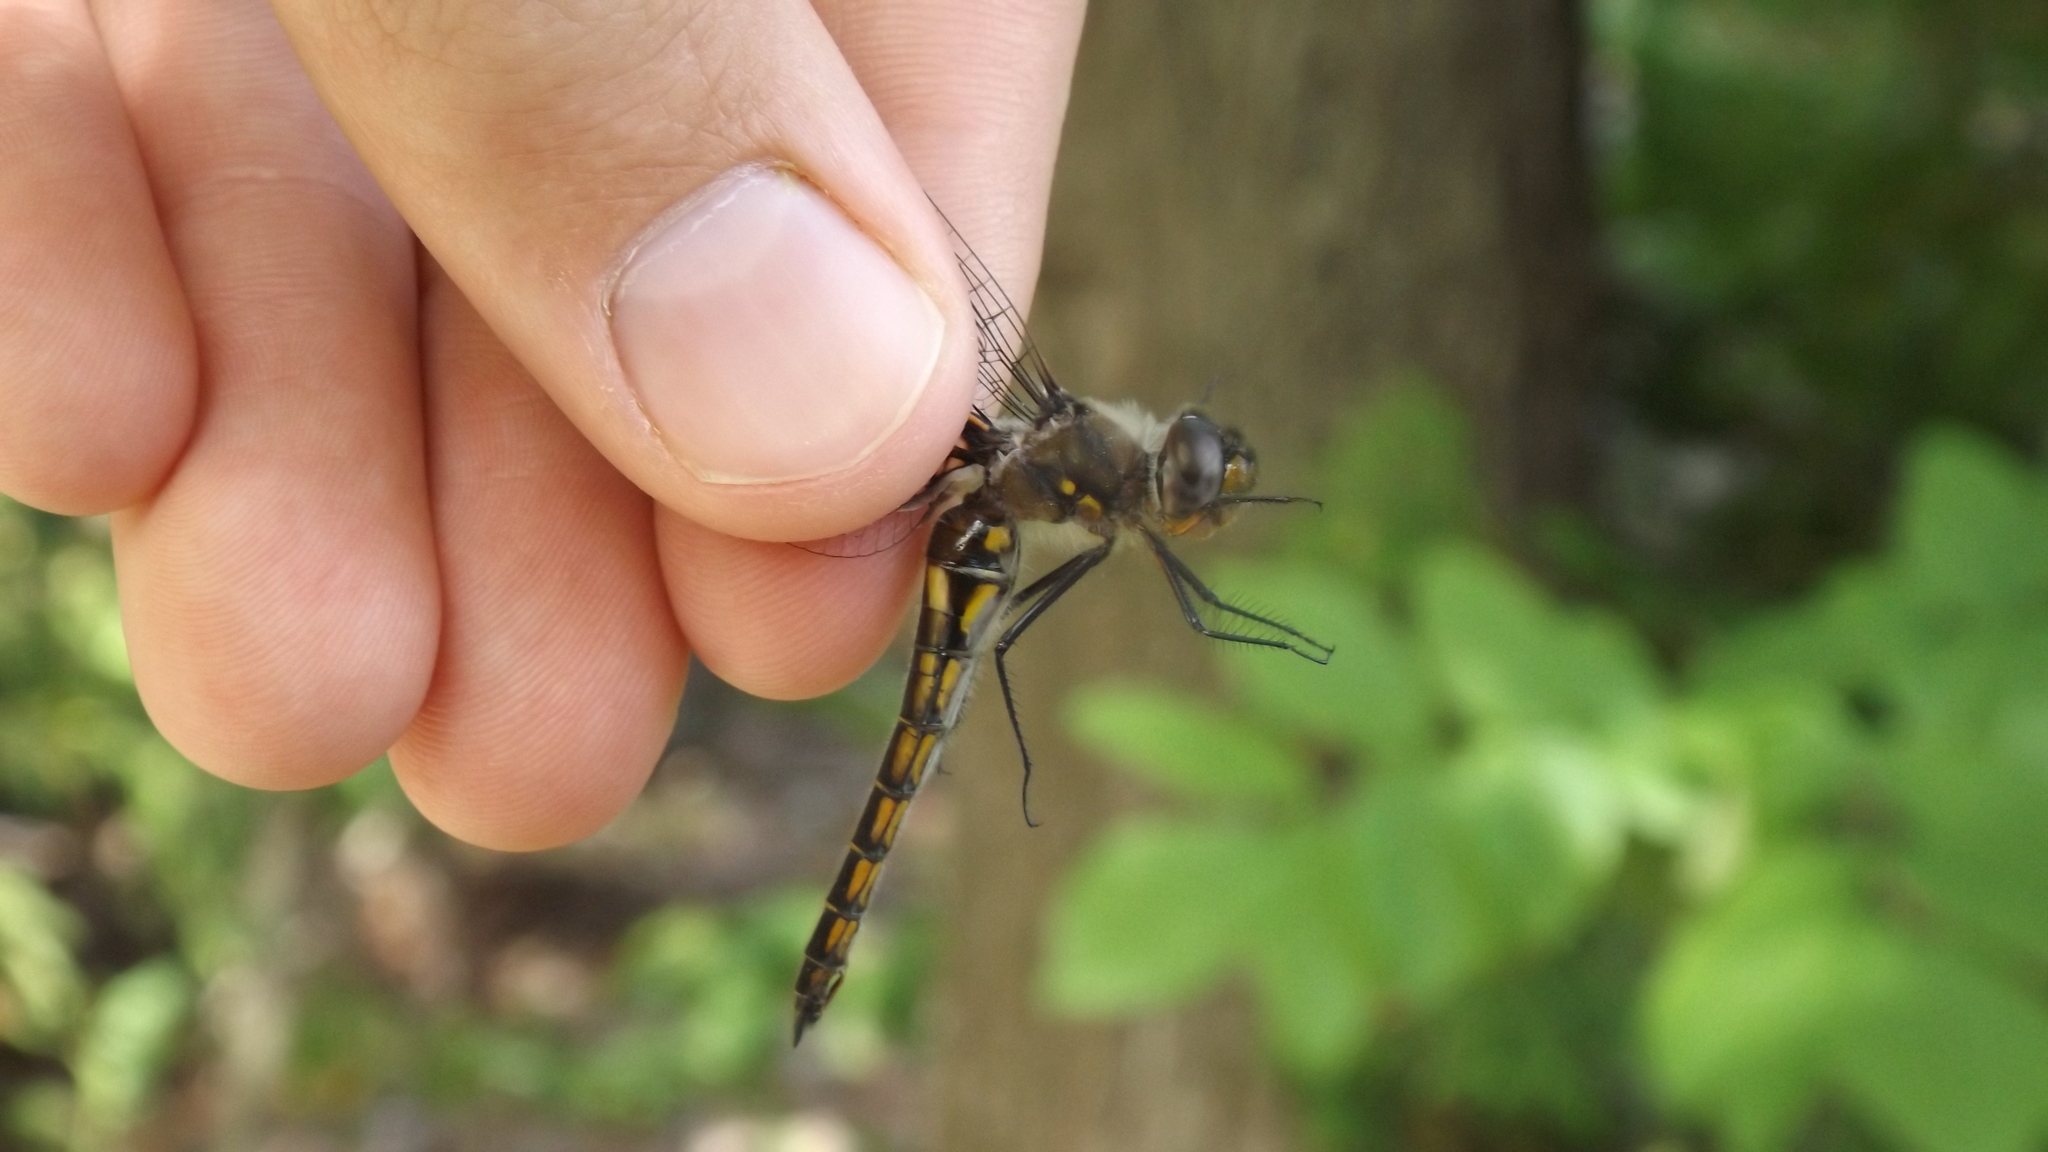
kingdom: Animalia
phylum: Arthropoda
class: Insecta
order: Odonata
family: Corduliidae
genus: Epitheca
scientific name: Epitheca cynosura
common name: Common baskettail
